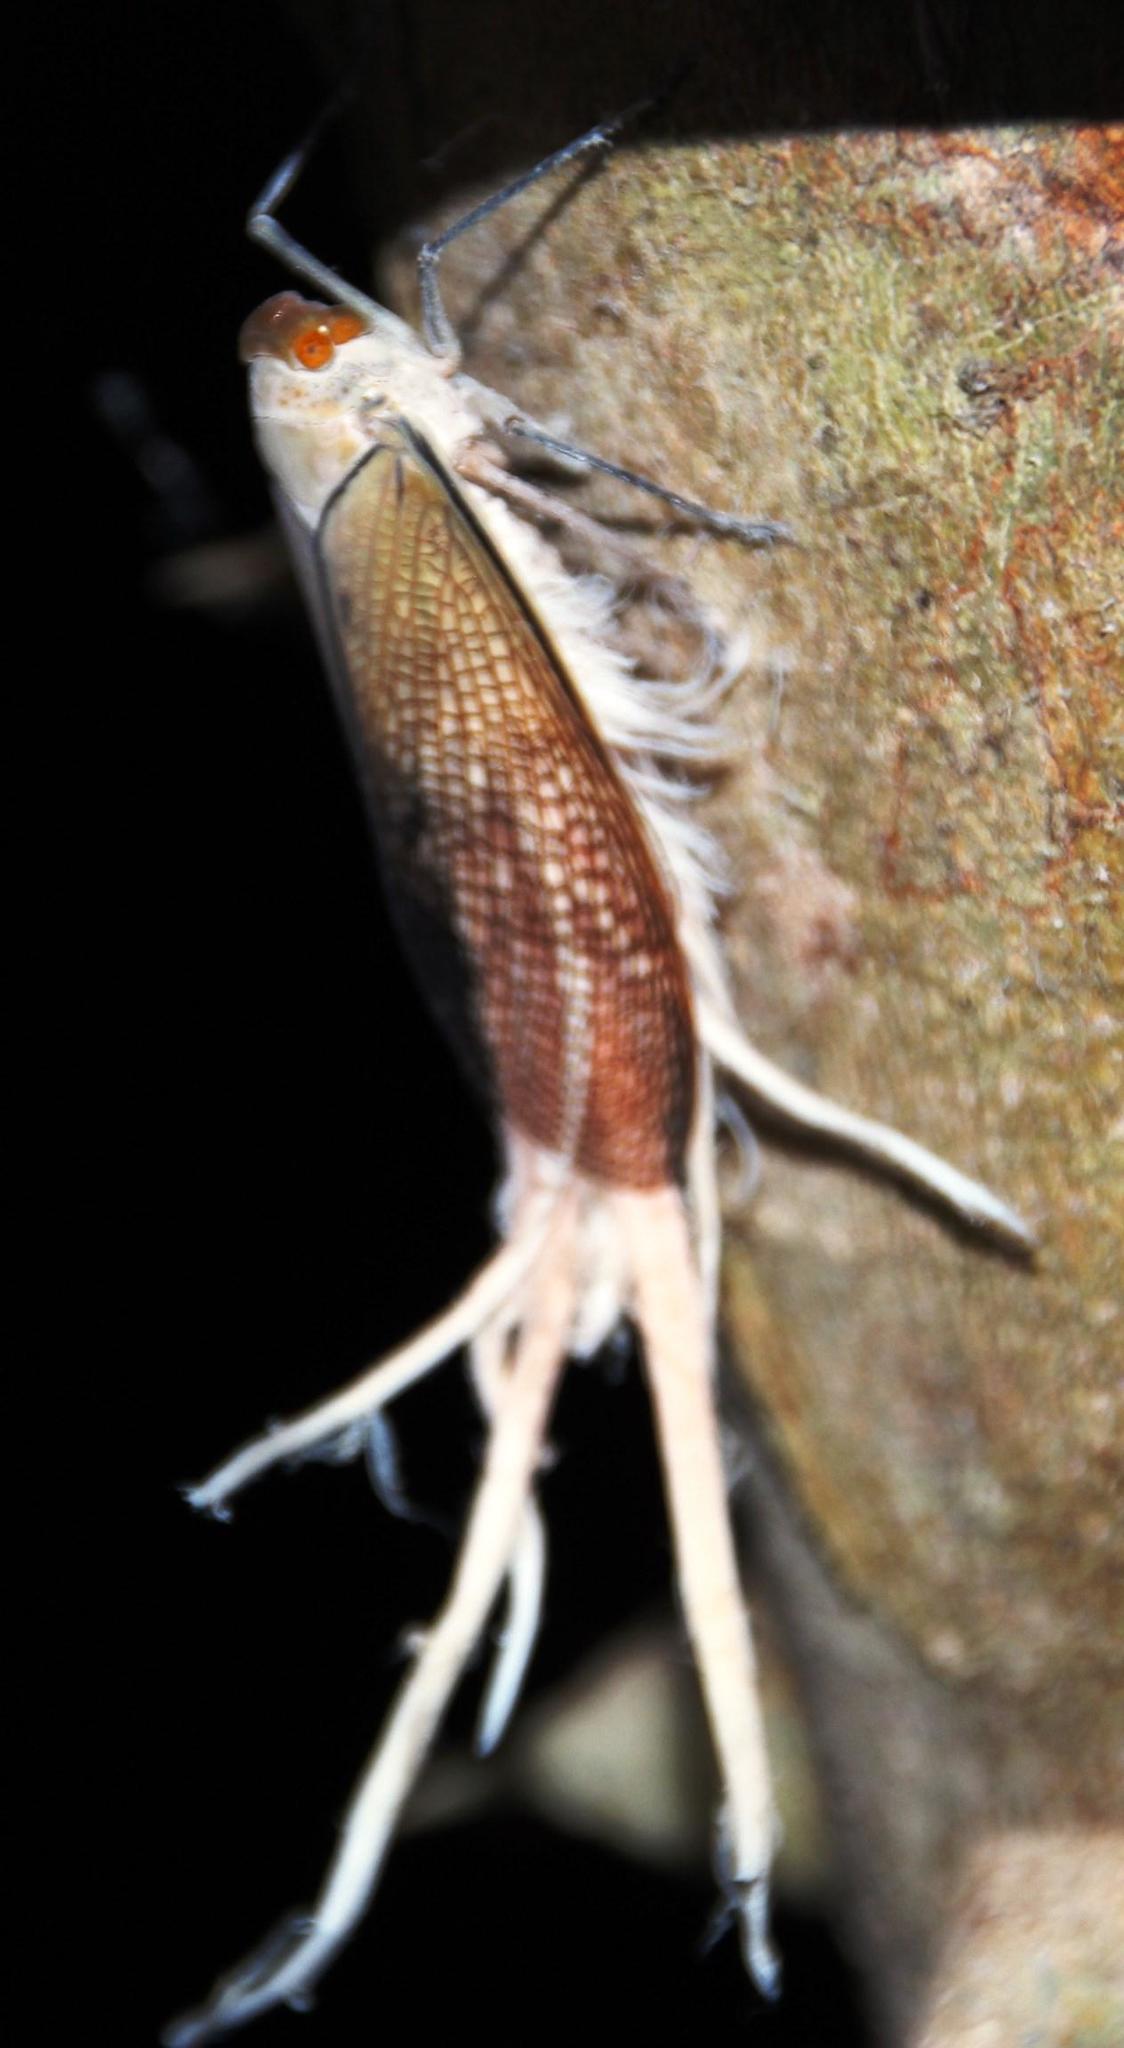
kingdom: Animalia
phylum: Arthropoda
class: Insecta
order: Hemiptera
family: Fulgoridae
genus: Pterodictya
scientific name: Pterodictya reticularis
